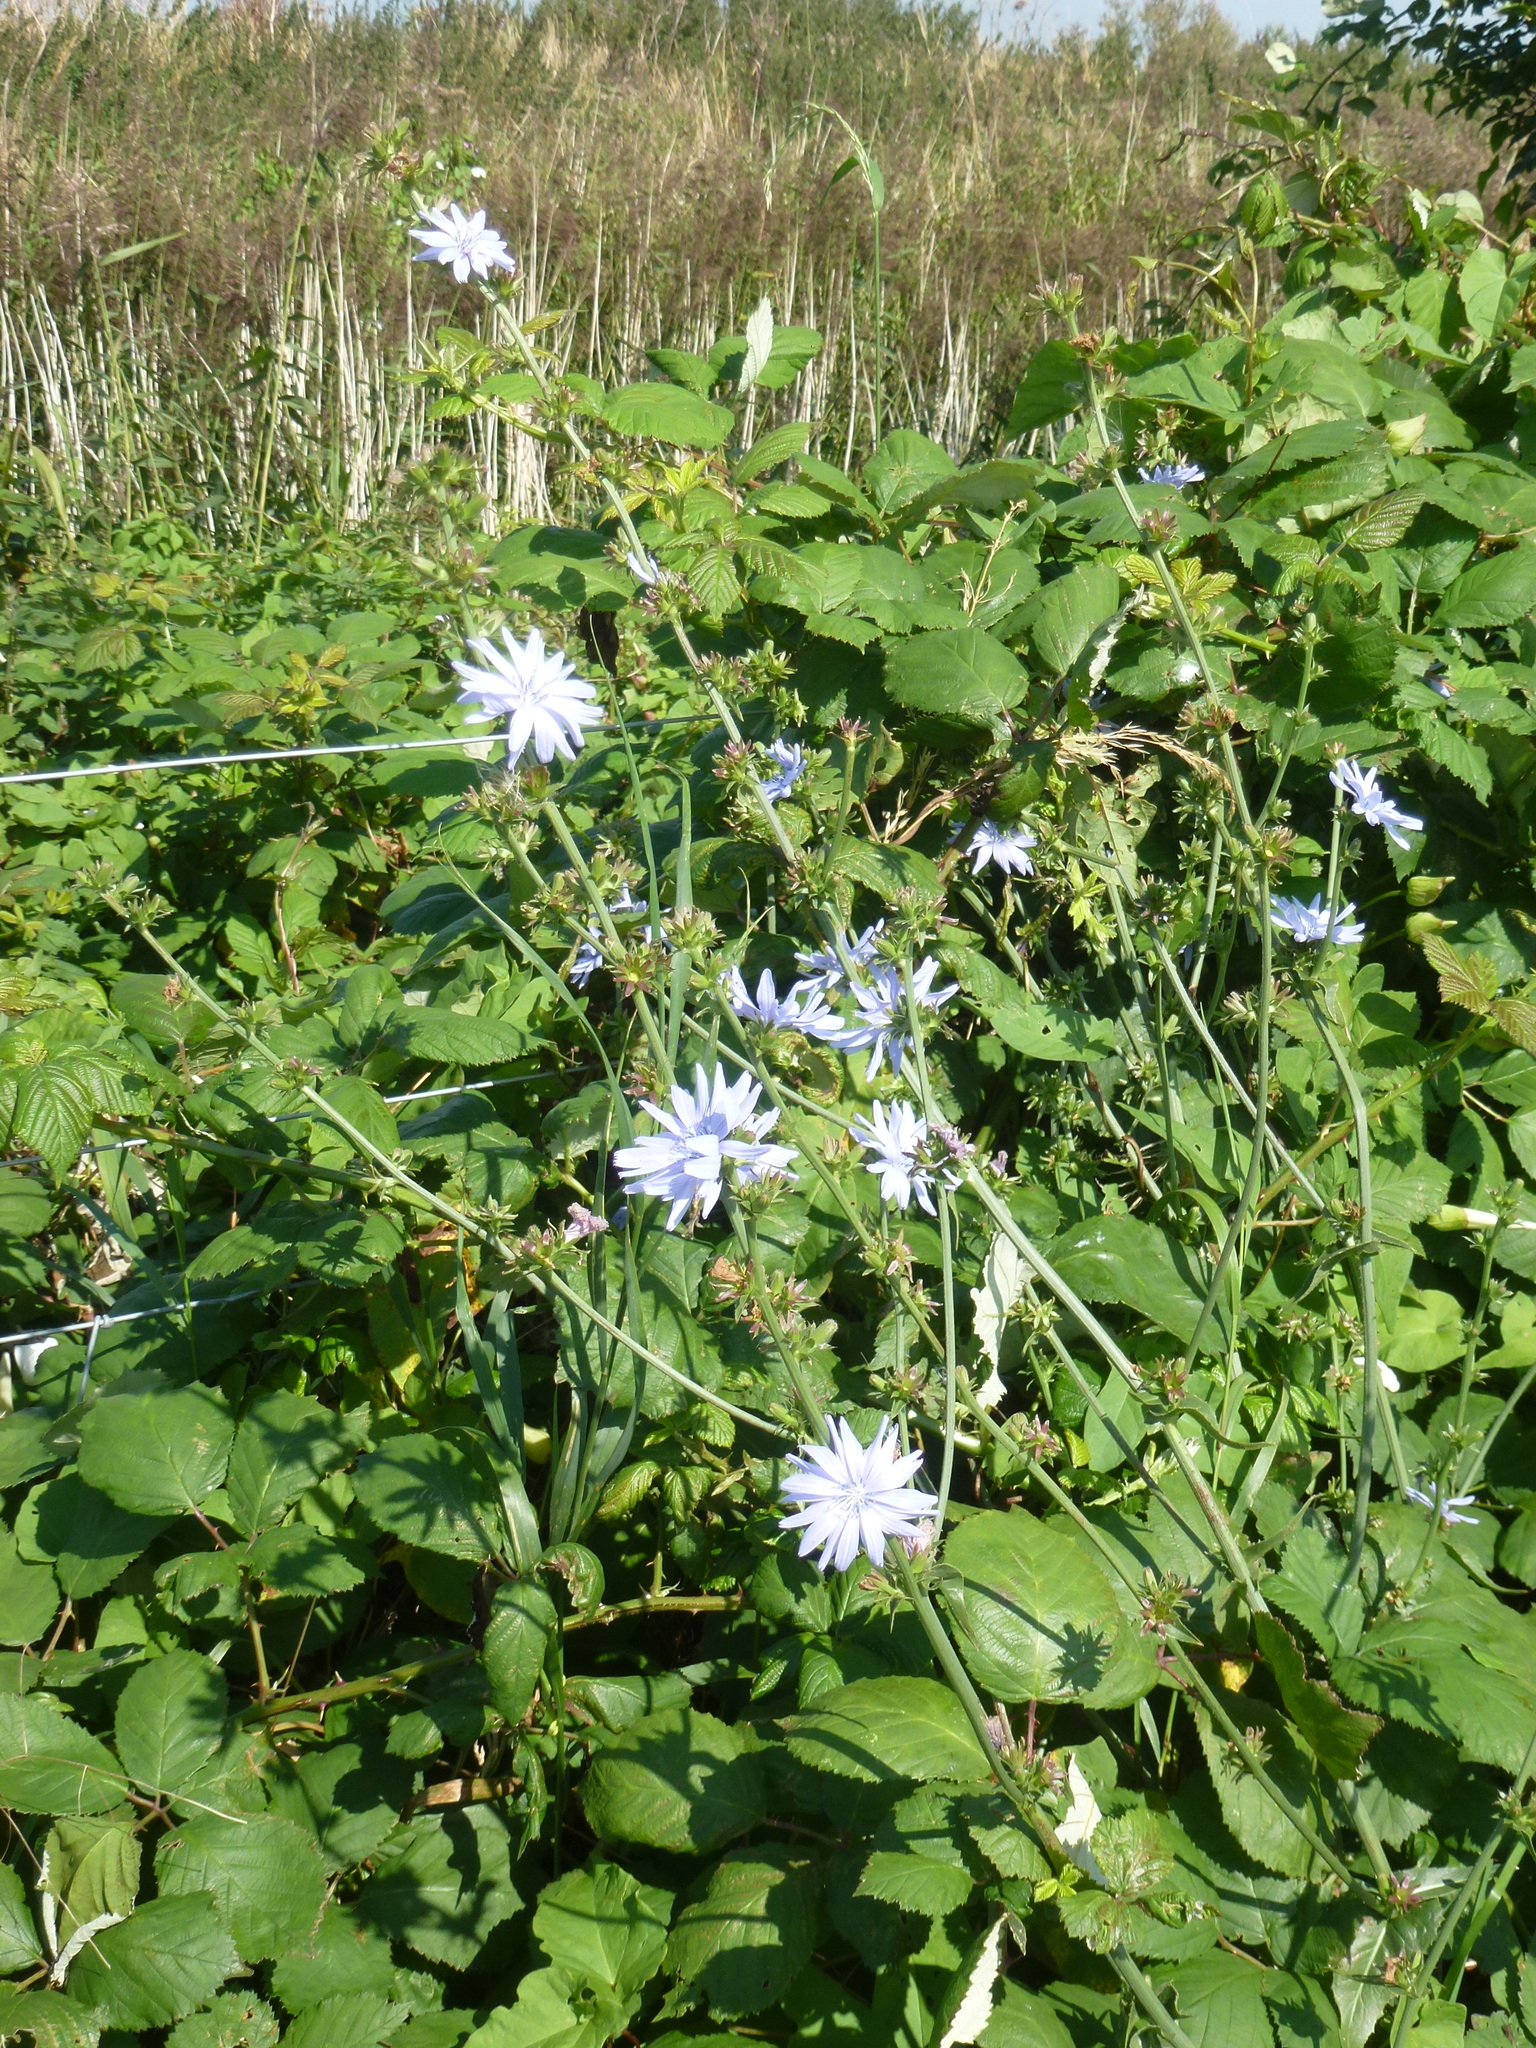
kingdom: Plantae
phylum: Tracheophyta
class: Magnoliopsida
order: Asterales
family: Asteraceae
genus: Cichorium
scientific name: Cichorium intybus
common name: Chicory
